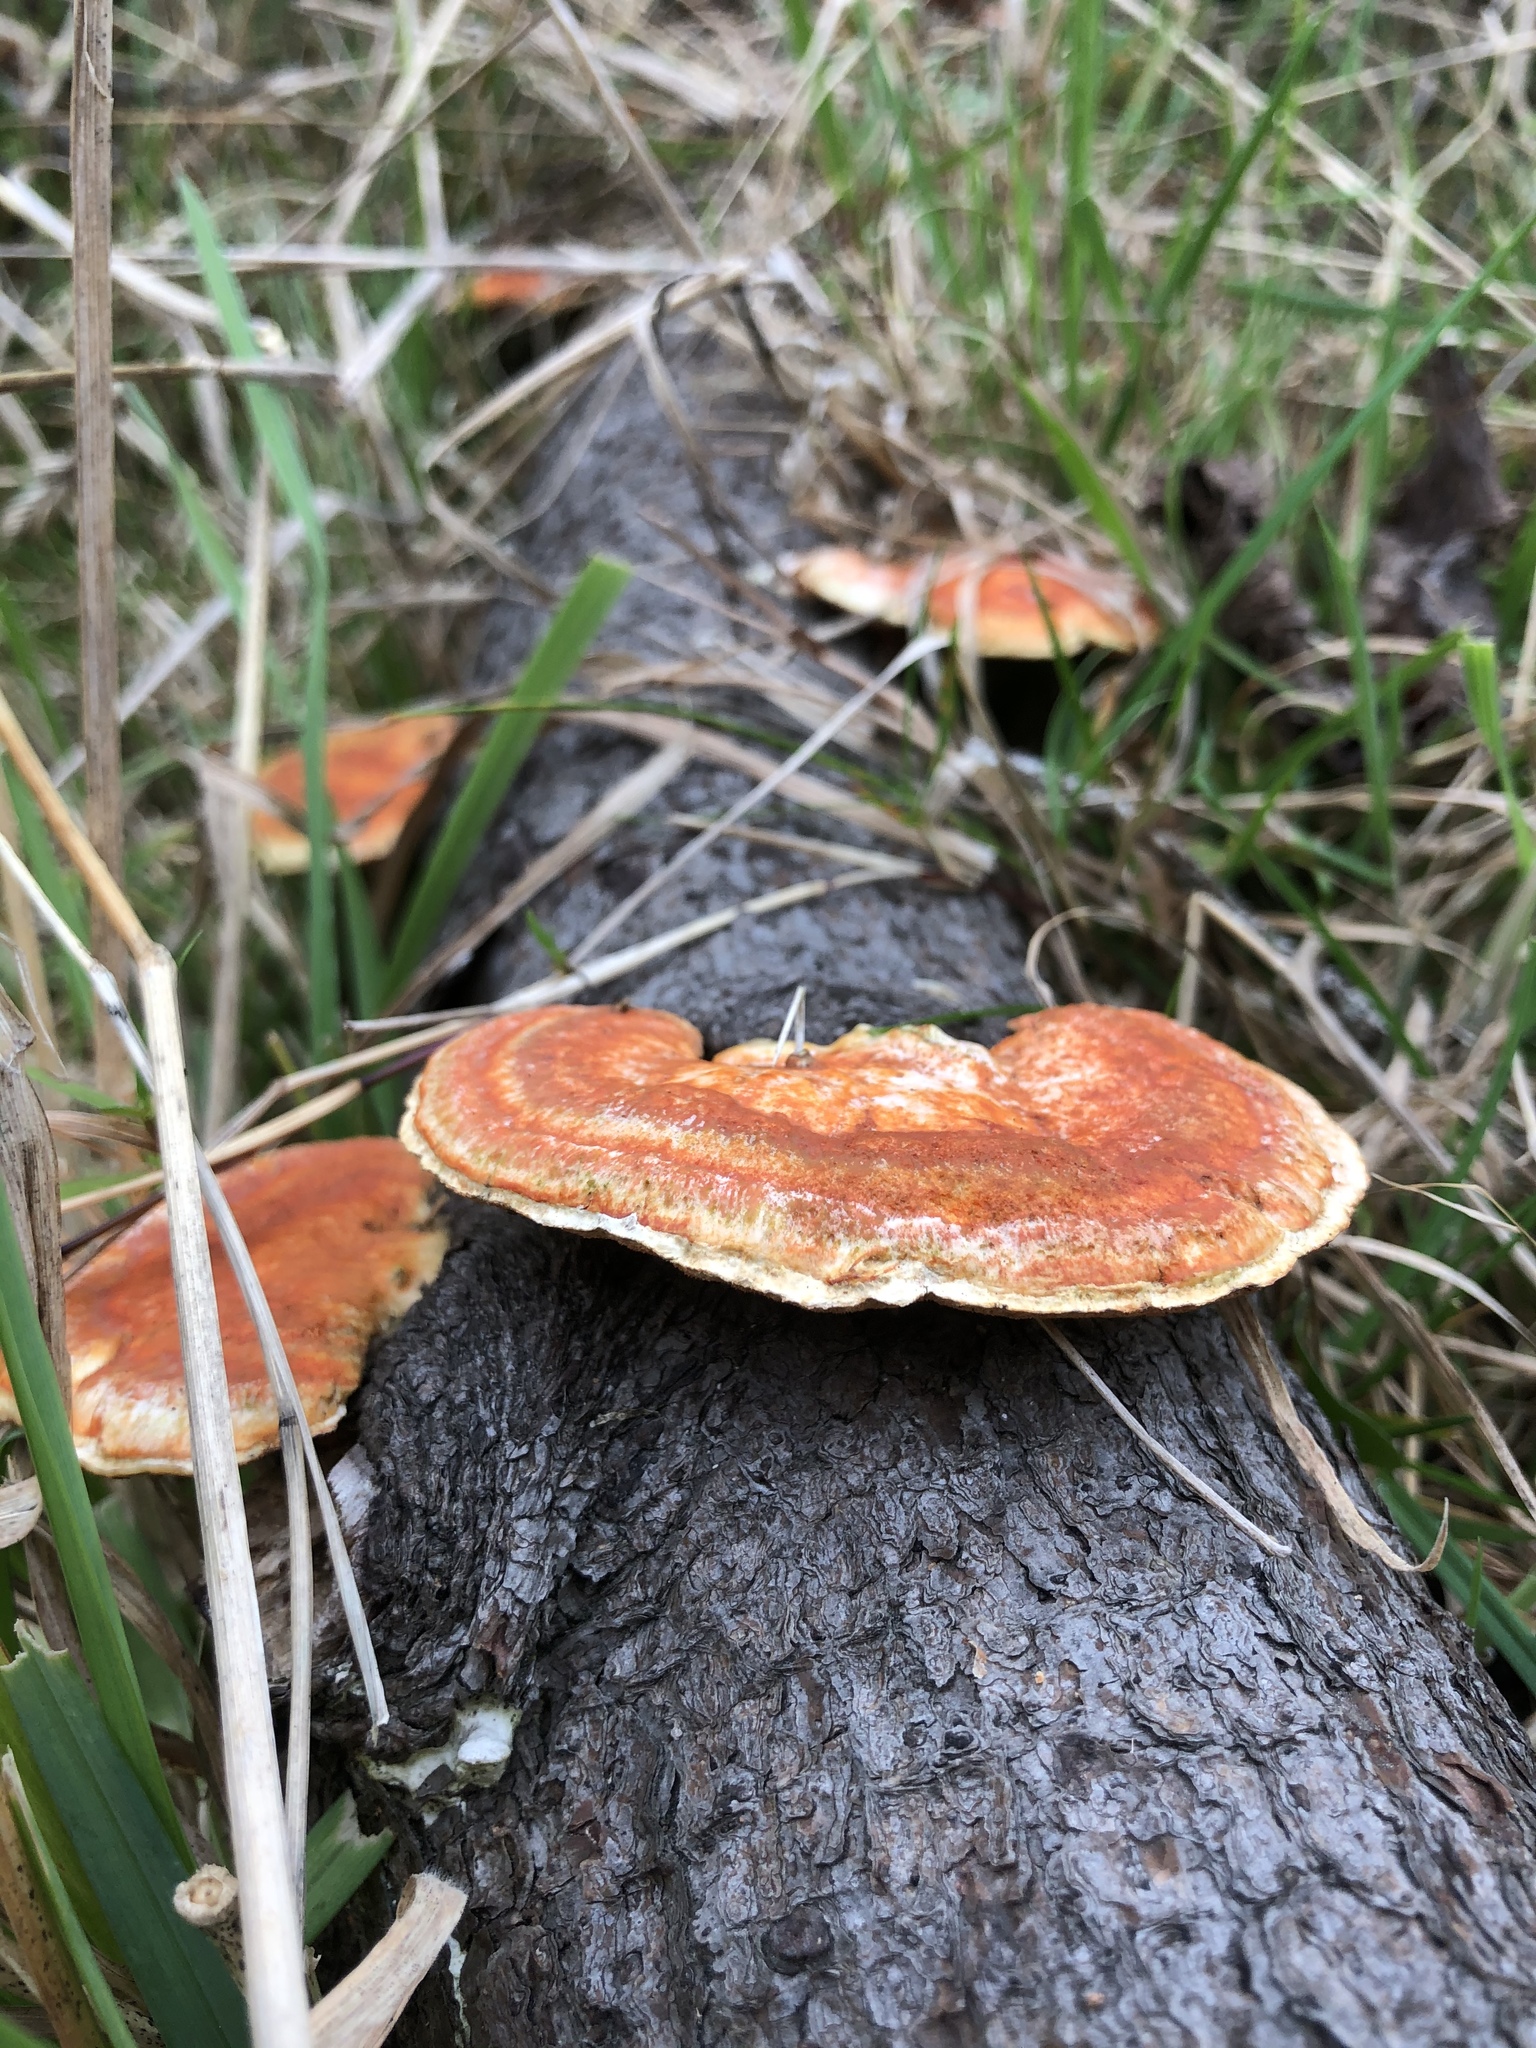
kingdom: Fungi
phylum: Basidiomycota
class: Agaricomycetes
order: Polyporales
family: Polyporaceae
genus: Trametes
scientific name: Trametes coccinea
